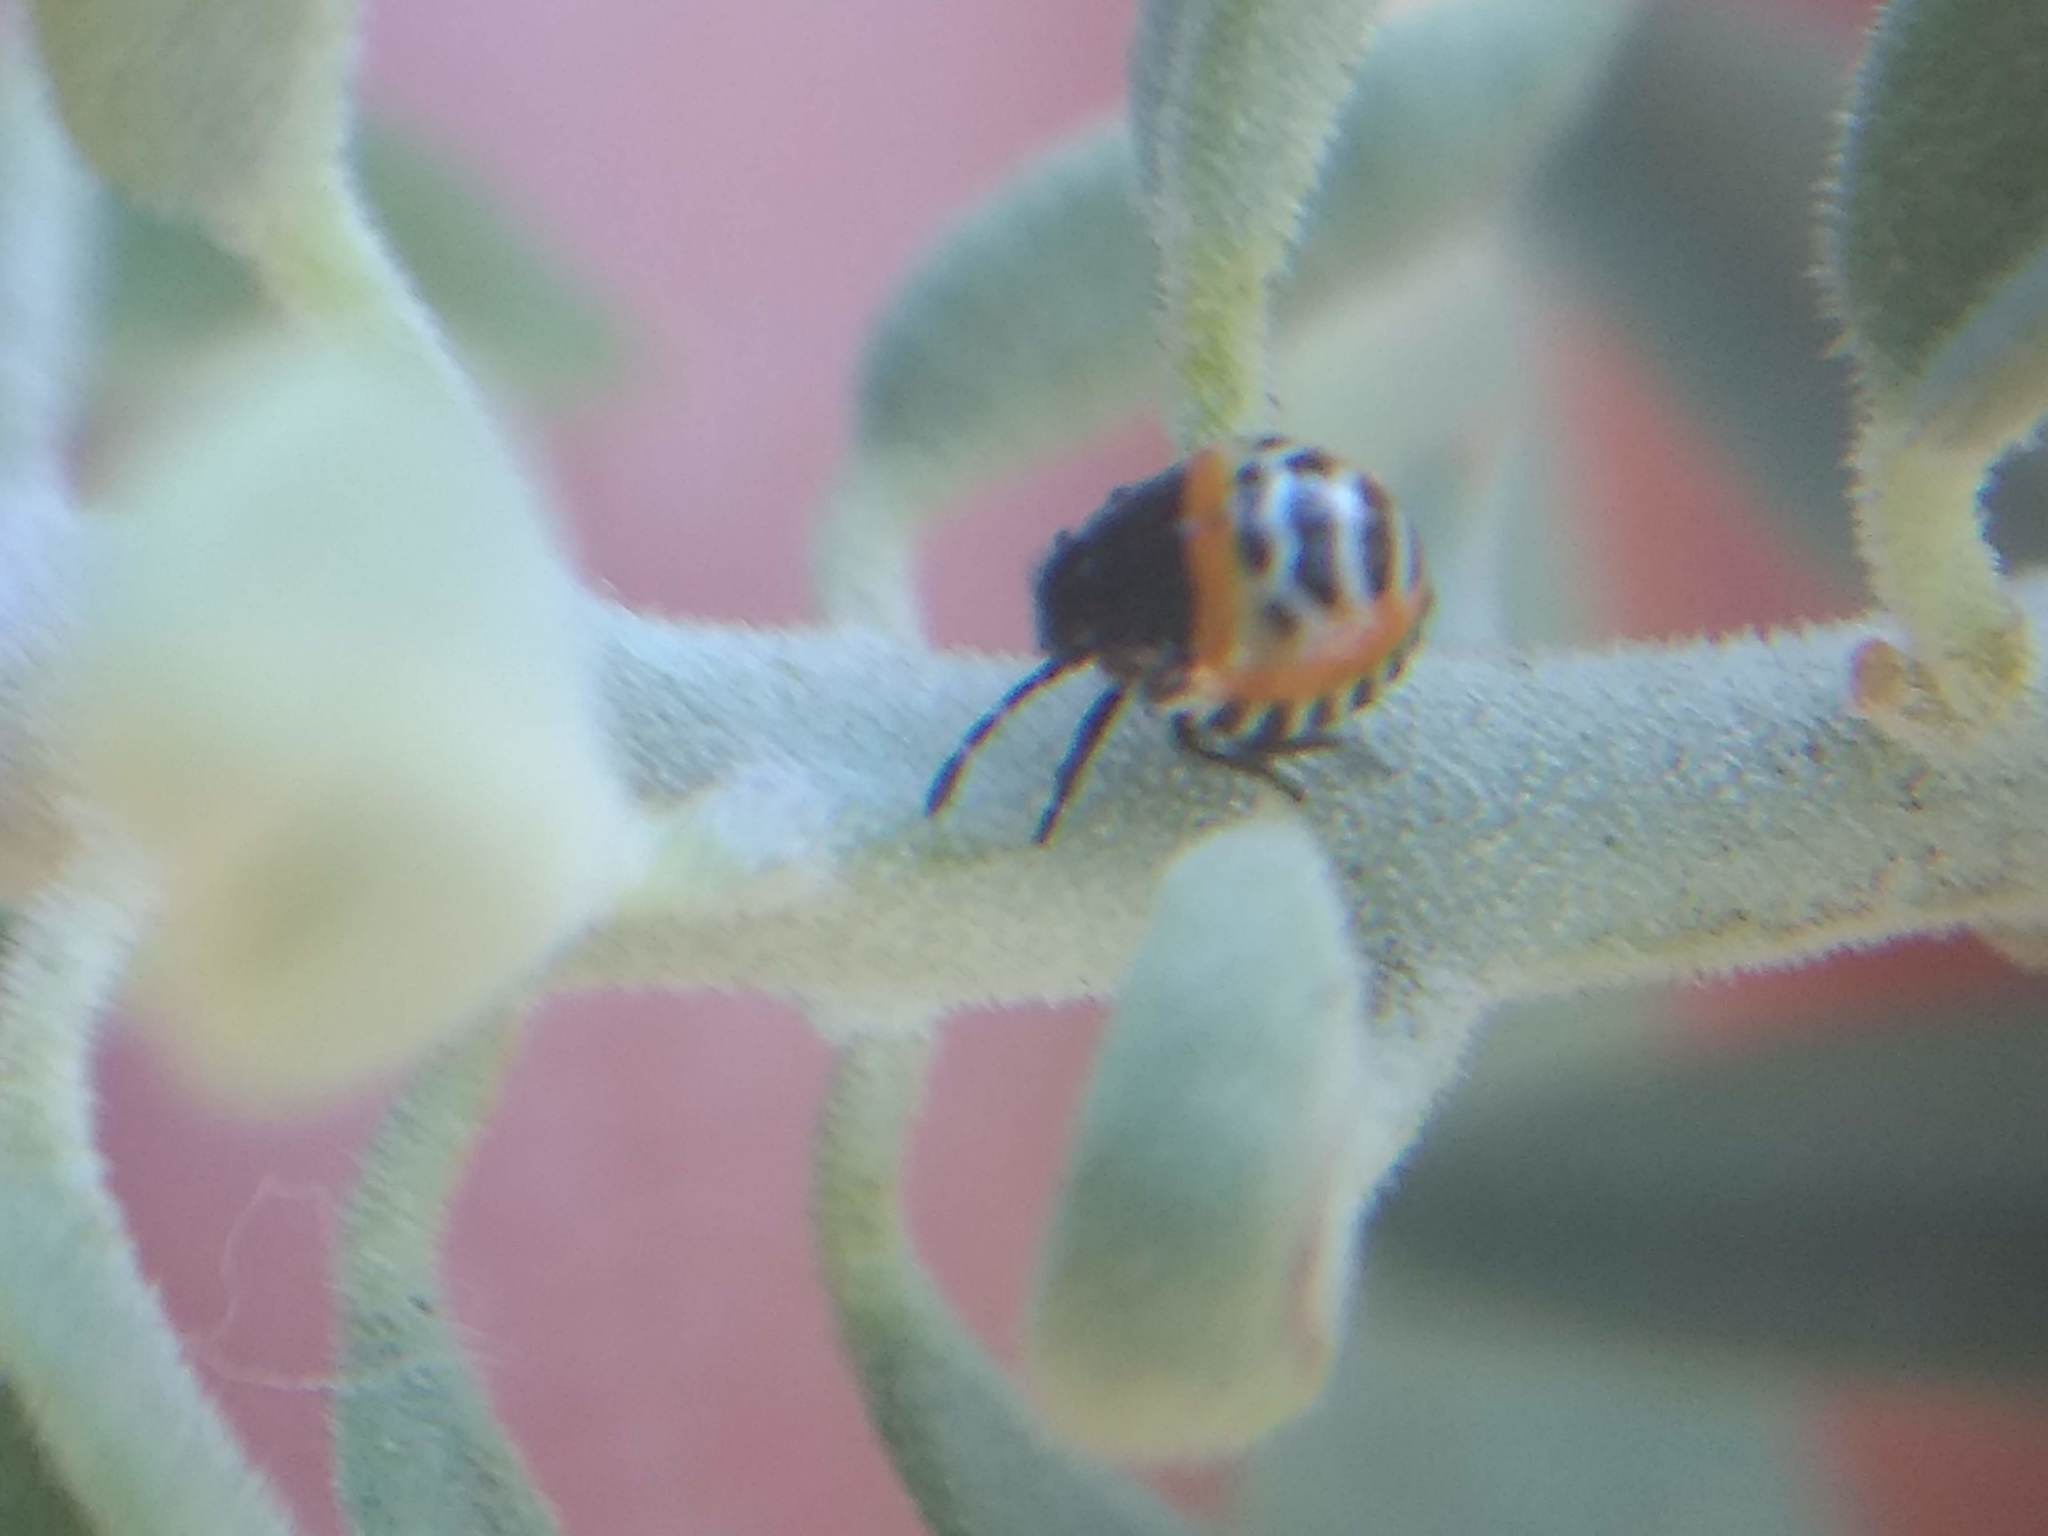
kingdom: Animalia
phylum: Arthropoda
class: Insecta
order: Hemiptera
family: Pentatomidae
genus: Murgantia
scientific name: Murgantia histrionica
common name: Harlequin bug
